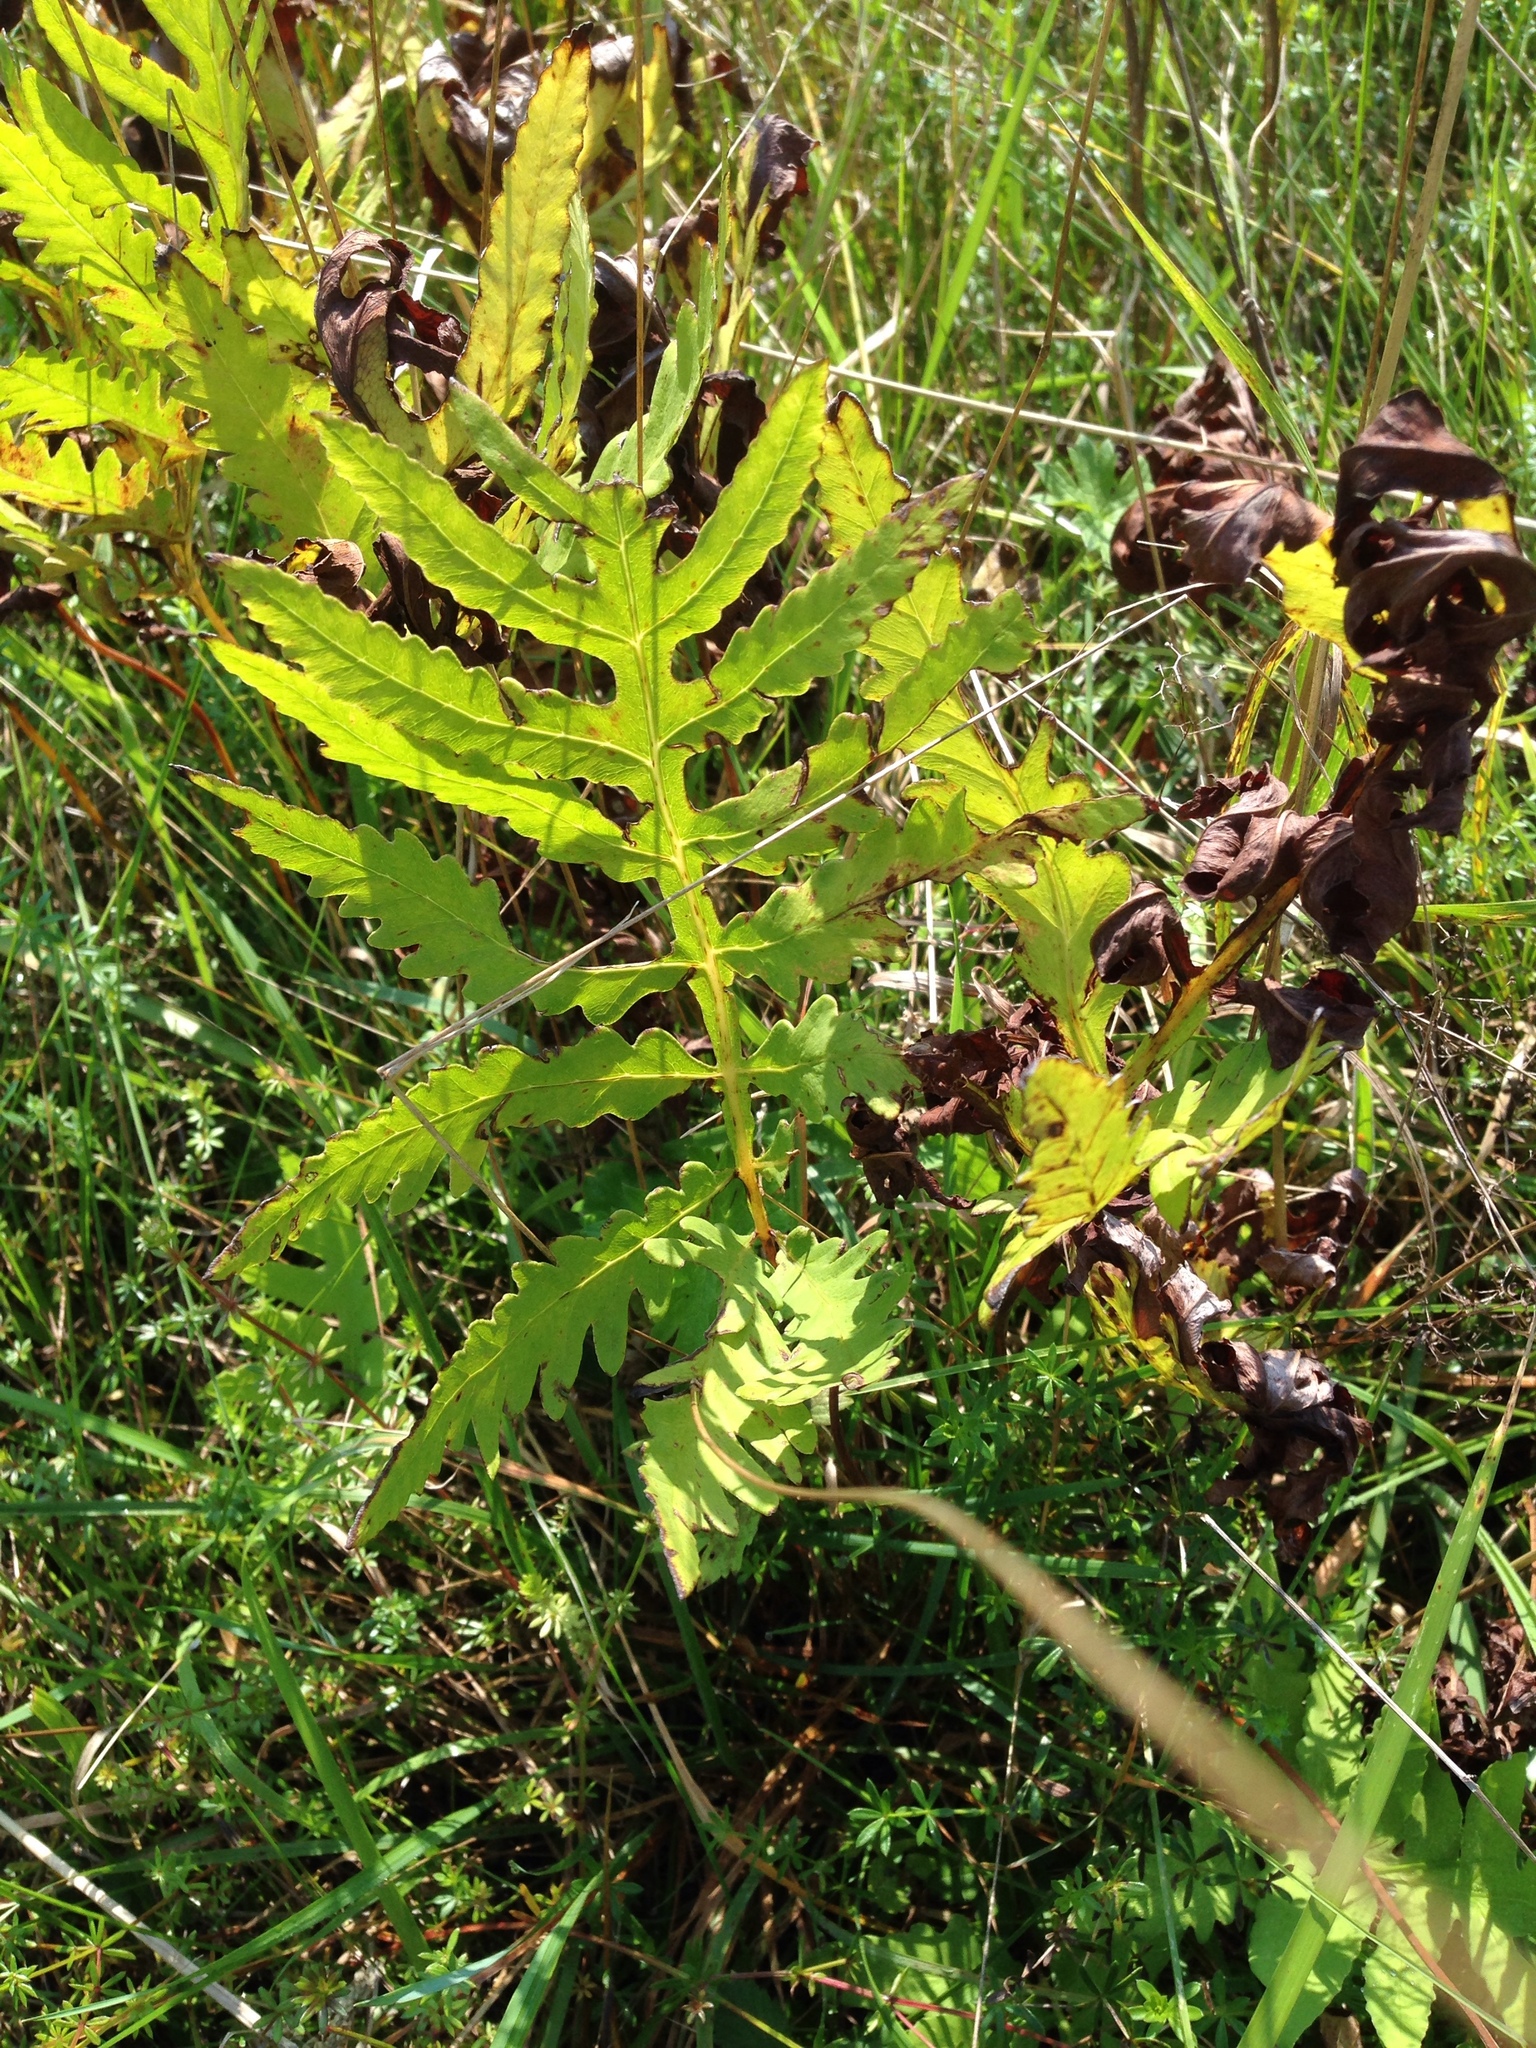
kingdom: Plantae
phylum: Tracheophyta
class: Polypodiopsida
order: Polypodiales
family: Onocleaceae
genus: Onoclea
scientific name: Onoclea sensibilis
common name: Sensitive fern
